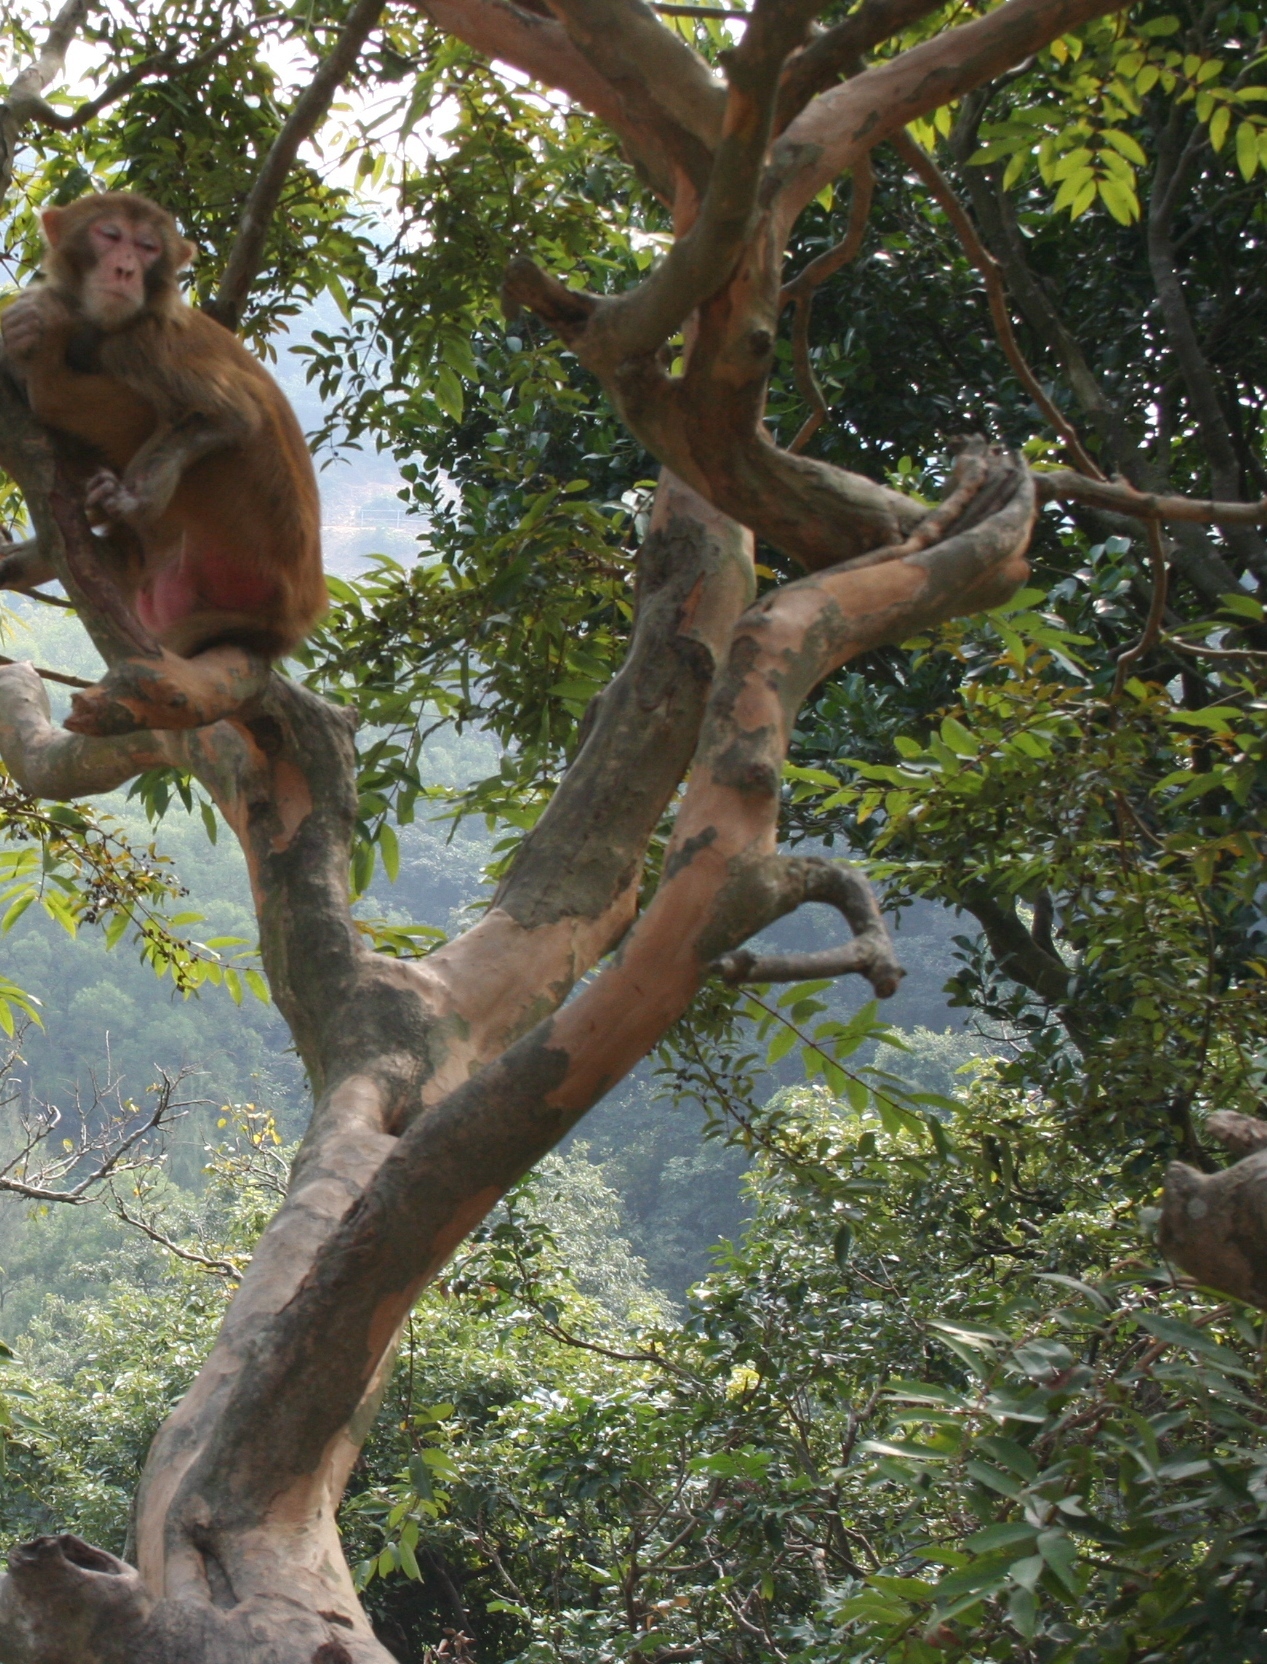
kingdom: Plantae
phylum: Tracheophyta
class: Magnoliopsida
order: Malpighiales
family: Hypericaceae
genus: Cratoxylum
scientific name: Cratoxylum cochinchinense
